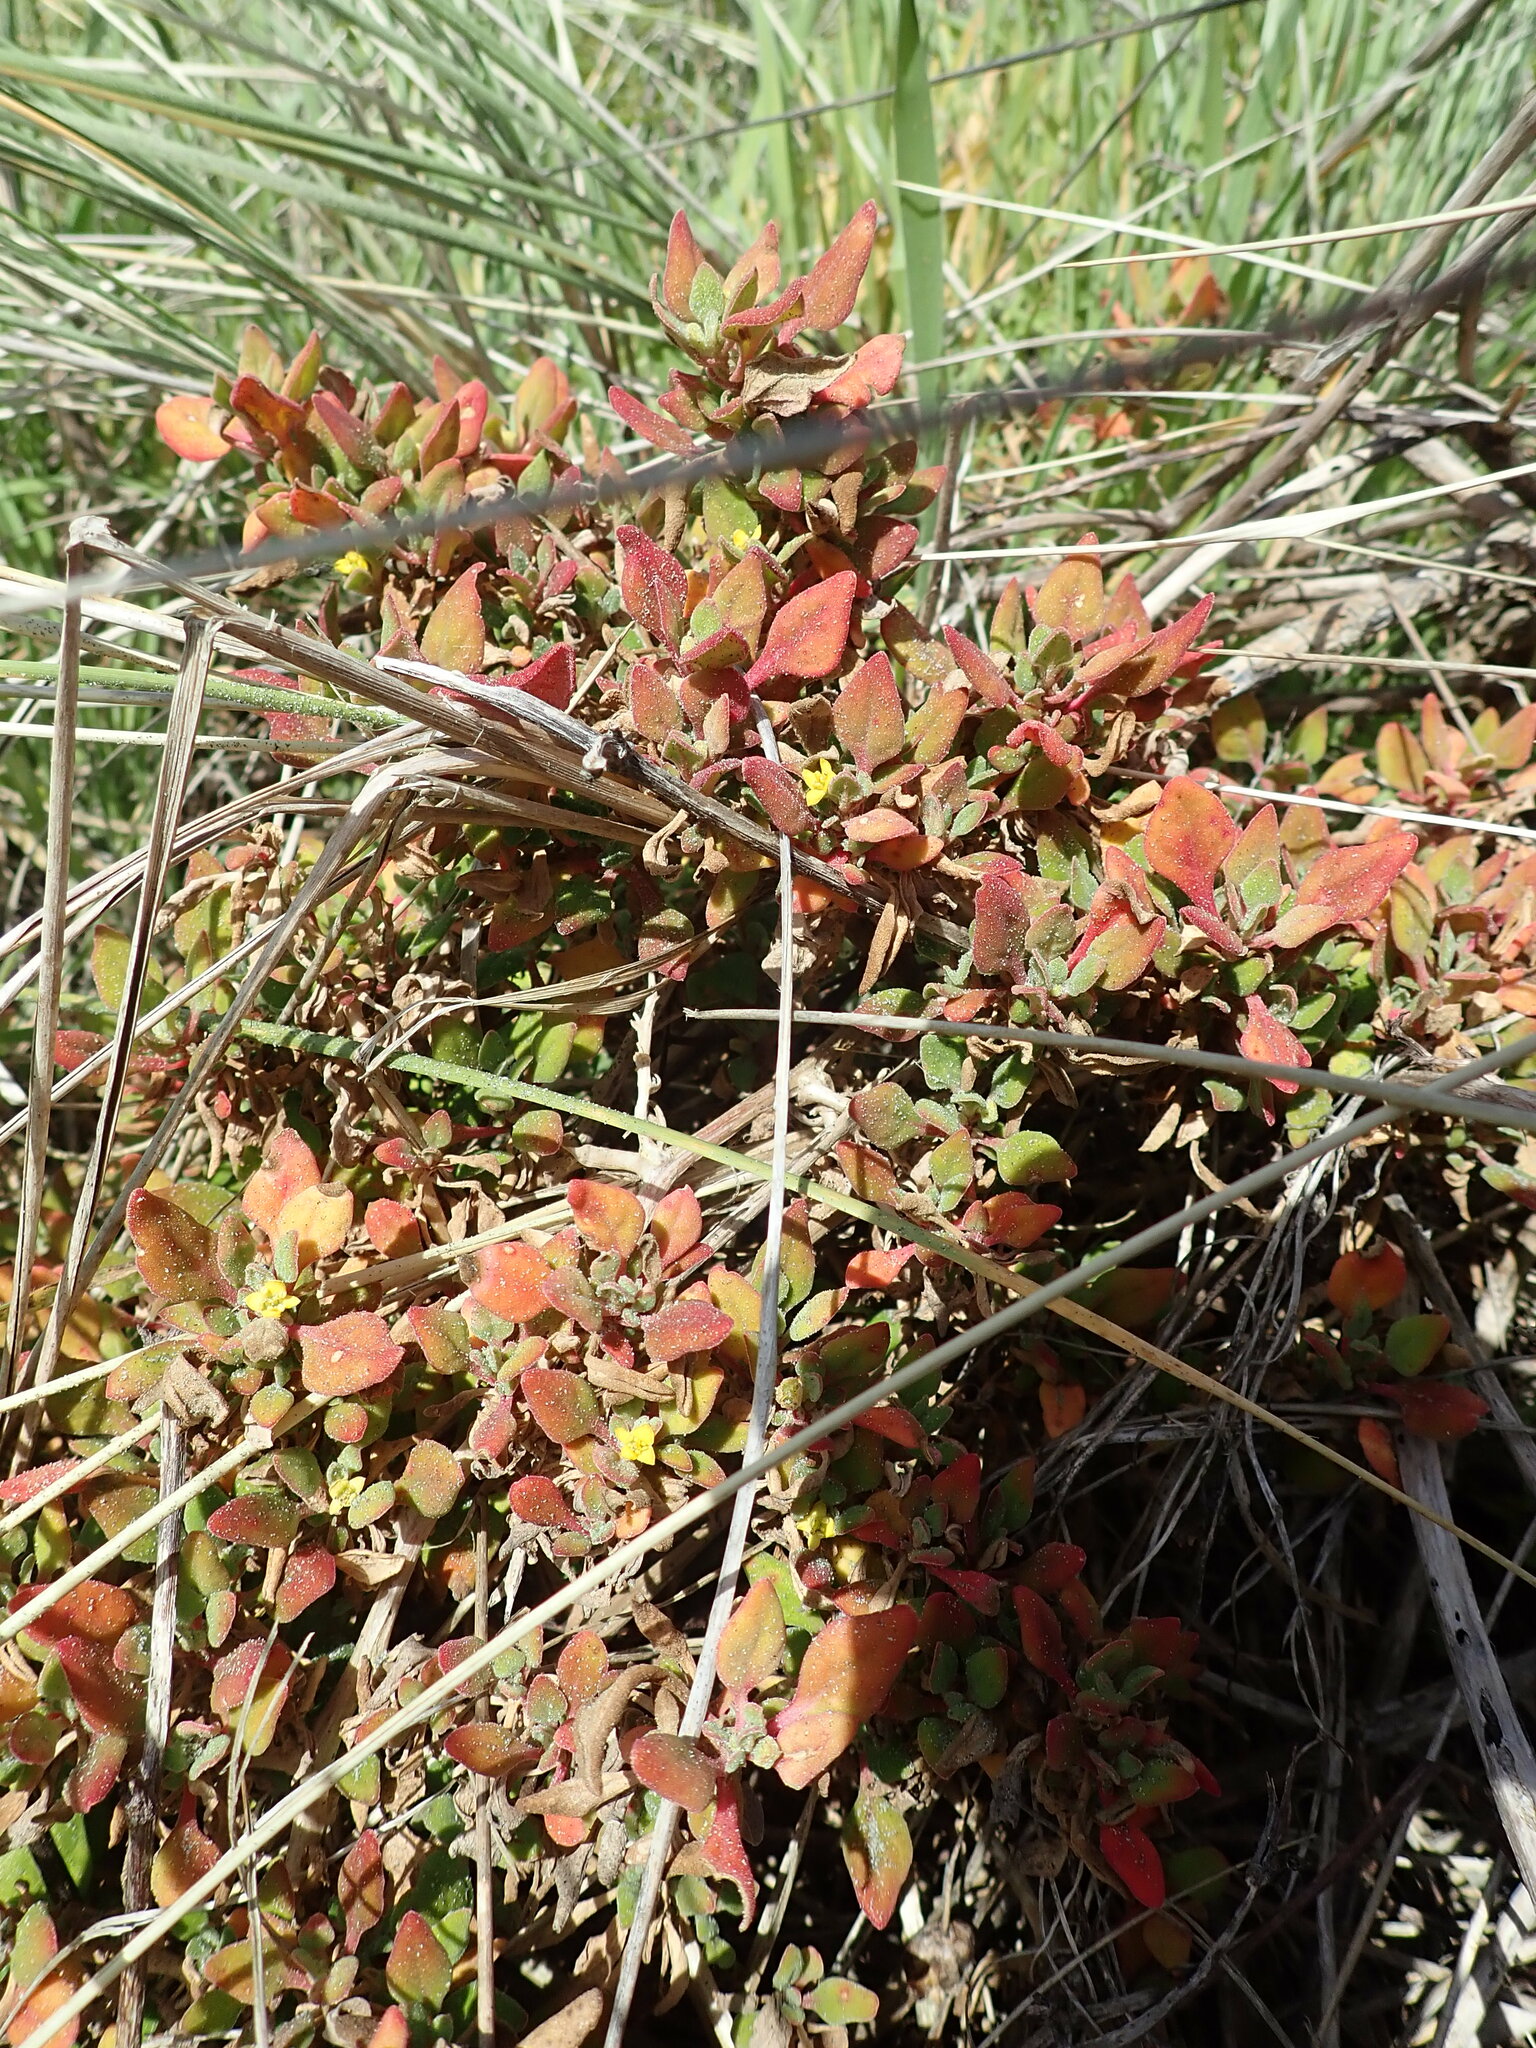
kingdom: Plantae
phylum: Tracheophyta
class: Magnoliopsida
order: Caryophyllales
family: Aizoaceae
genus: Tetragonia
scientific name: Tetragonia implexicoma
